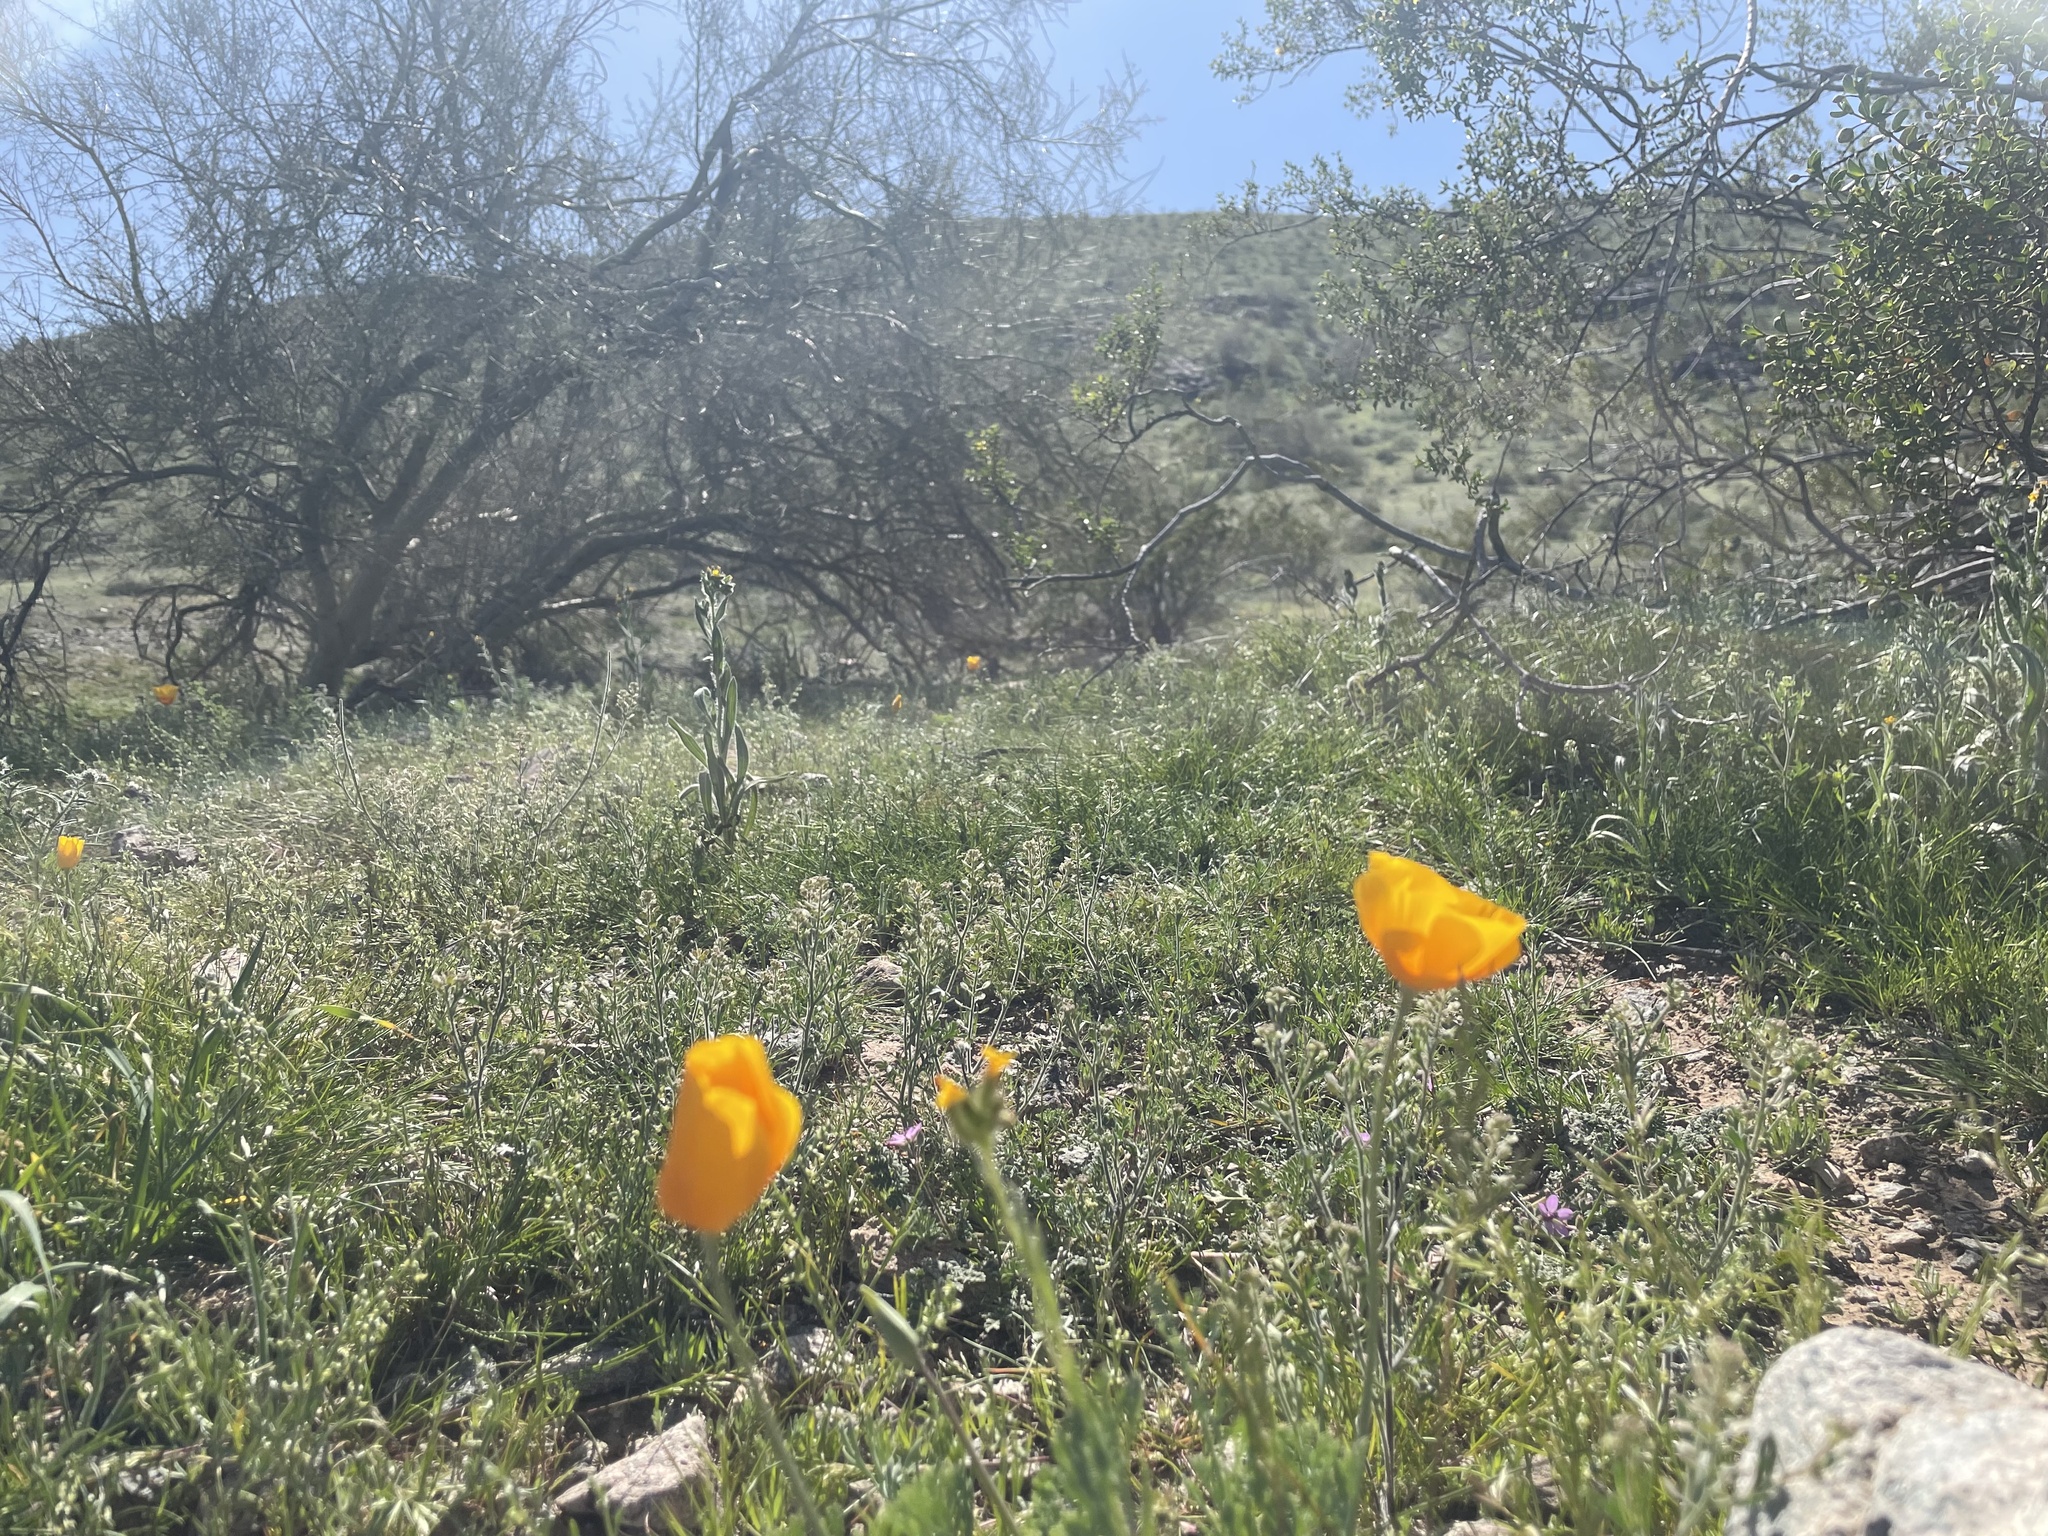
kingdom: Plantae
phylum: Tracheophyta
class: Magnoliopsida
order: Ranunculales
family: Papaveraceae
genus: Eschscholzia
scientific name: Eschscholzia californica
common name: California poppy
